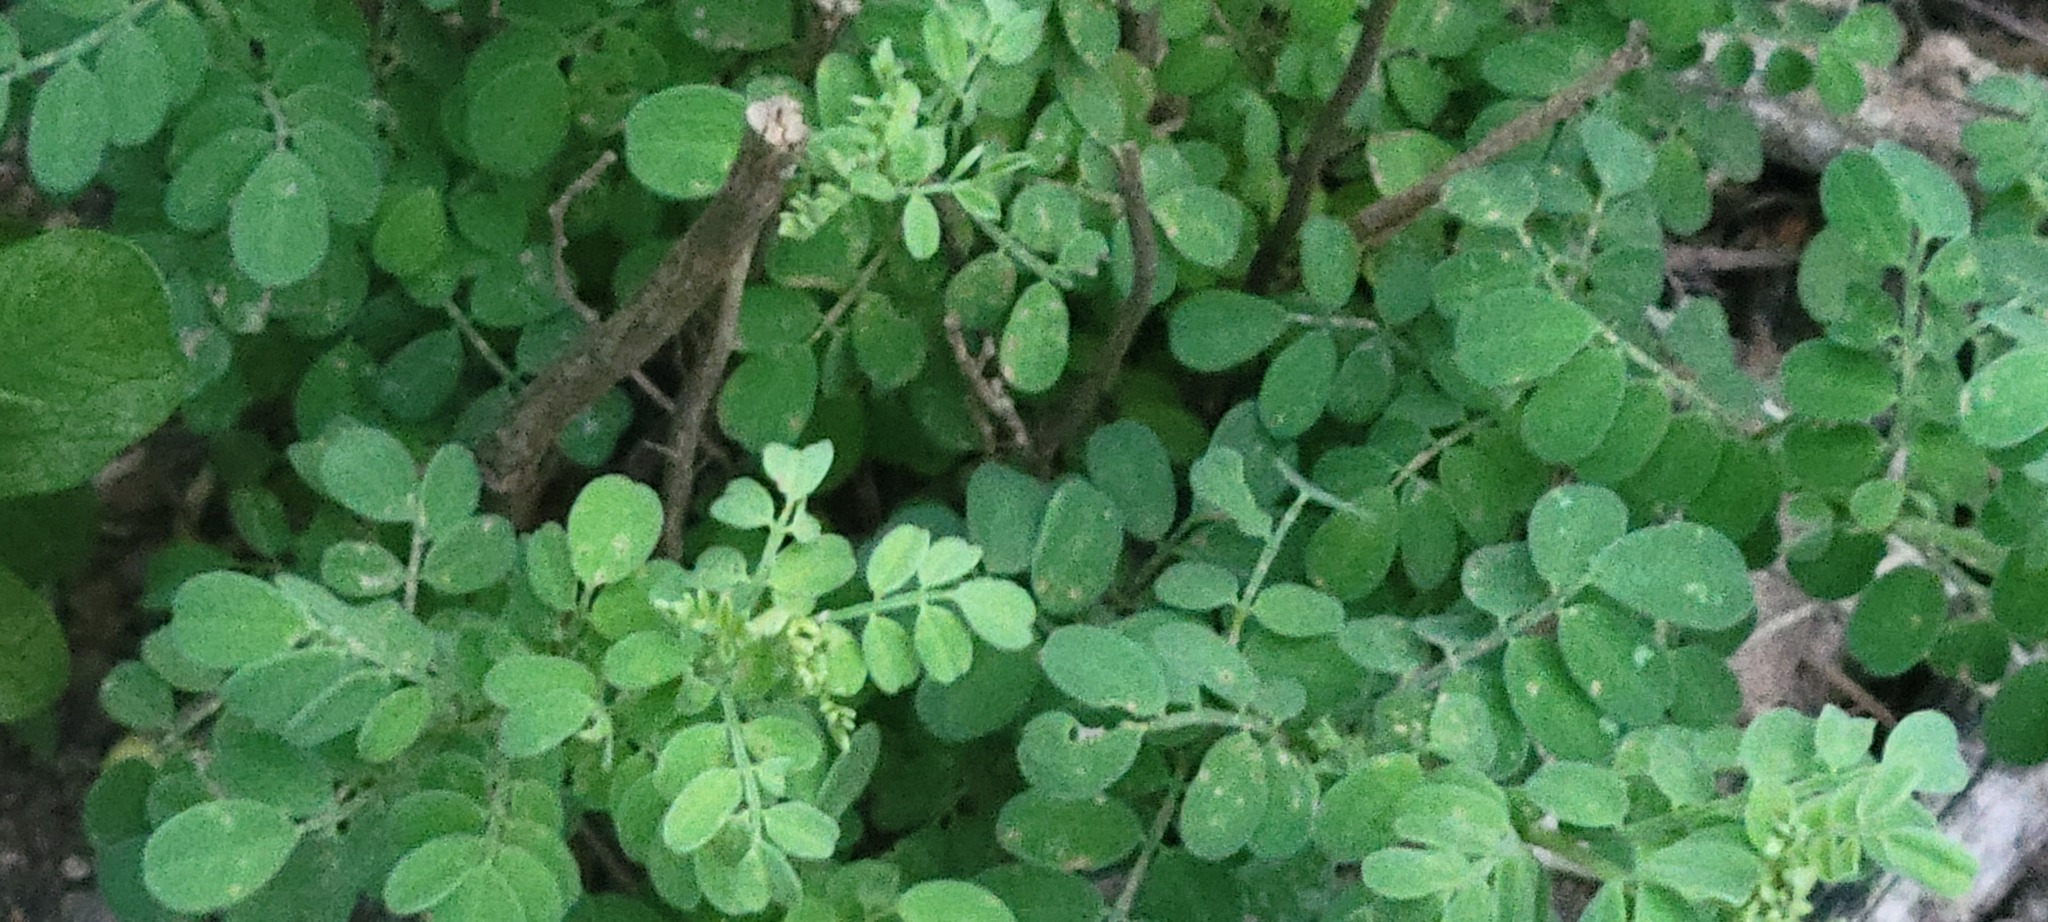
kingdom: Plantae
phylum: Tracheophyta
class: Magnoliopsida
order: Fabales
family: Fabaceae
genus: Dalea
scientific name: Dalea scandens
